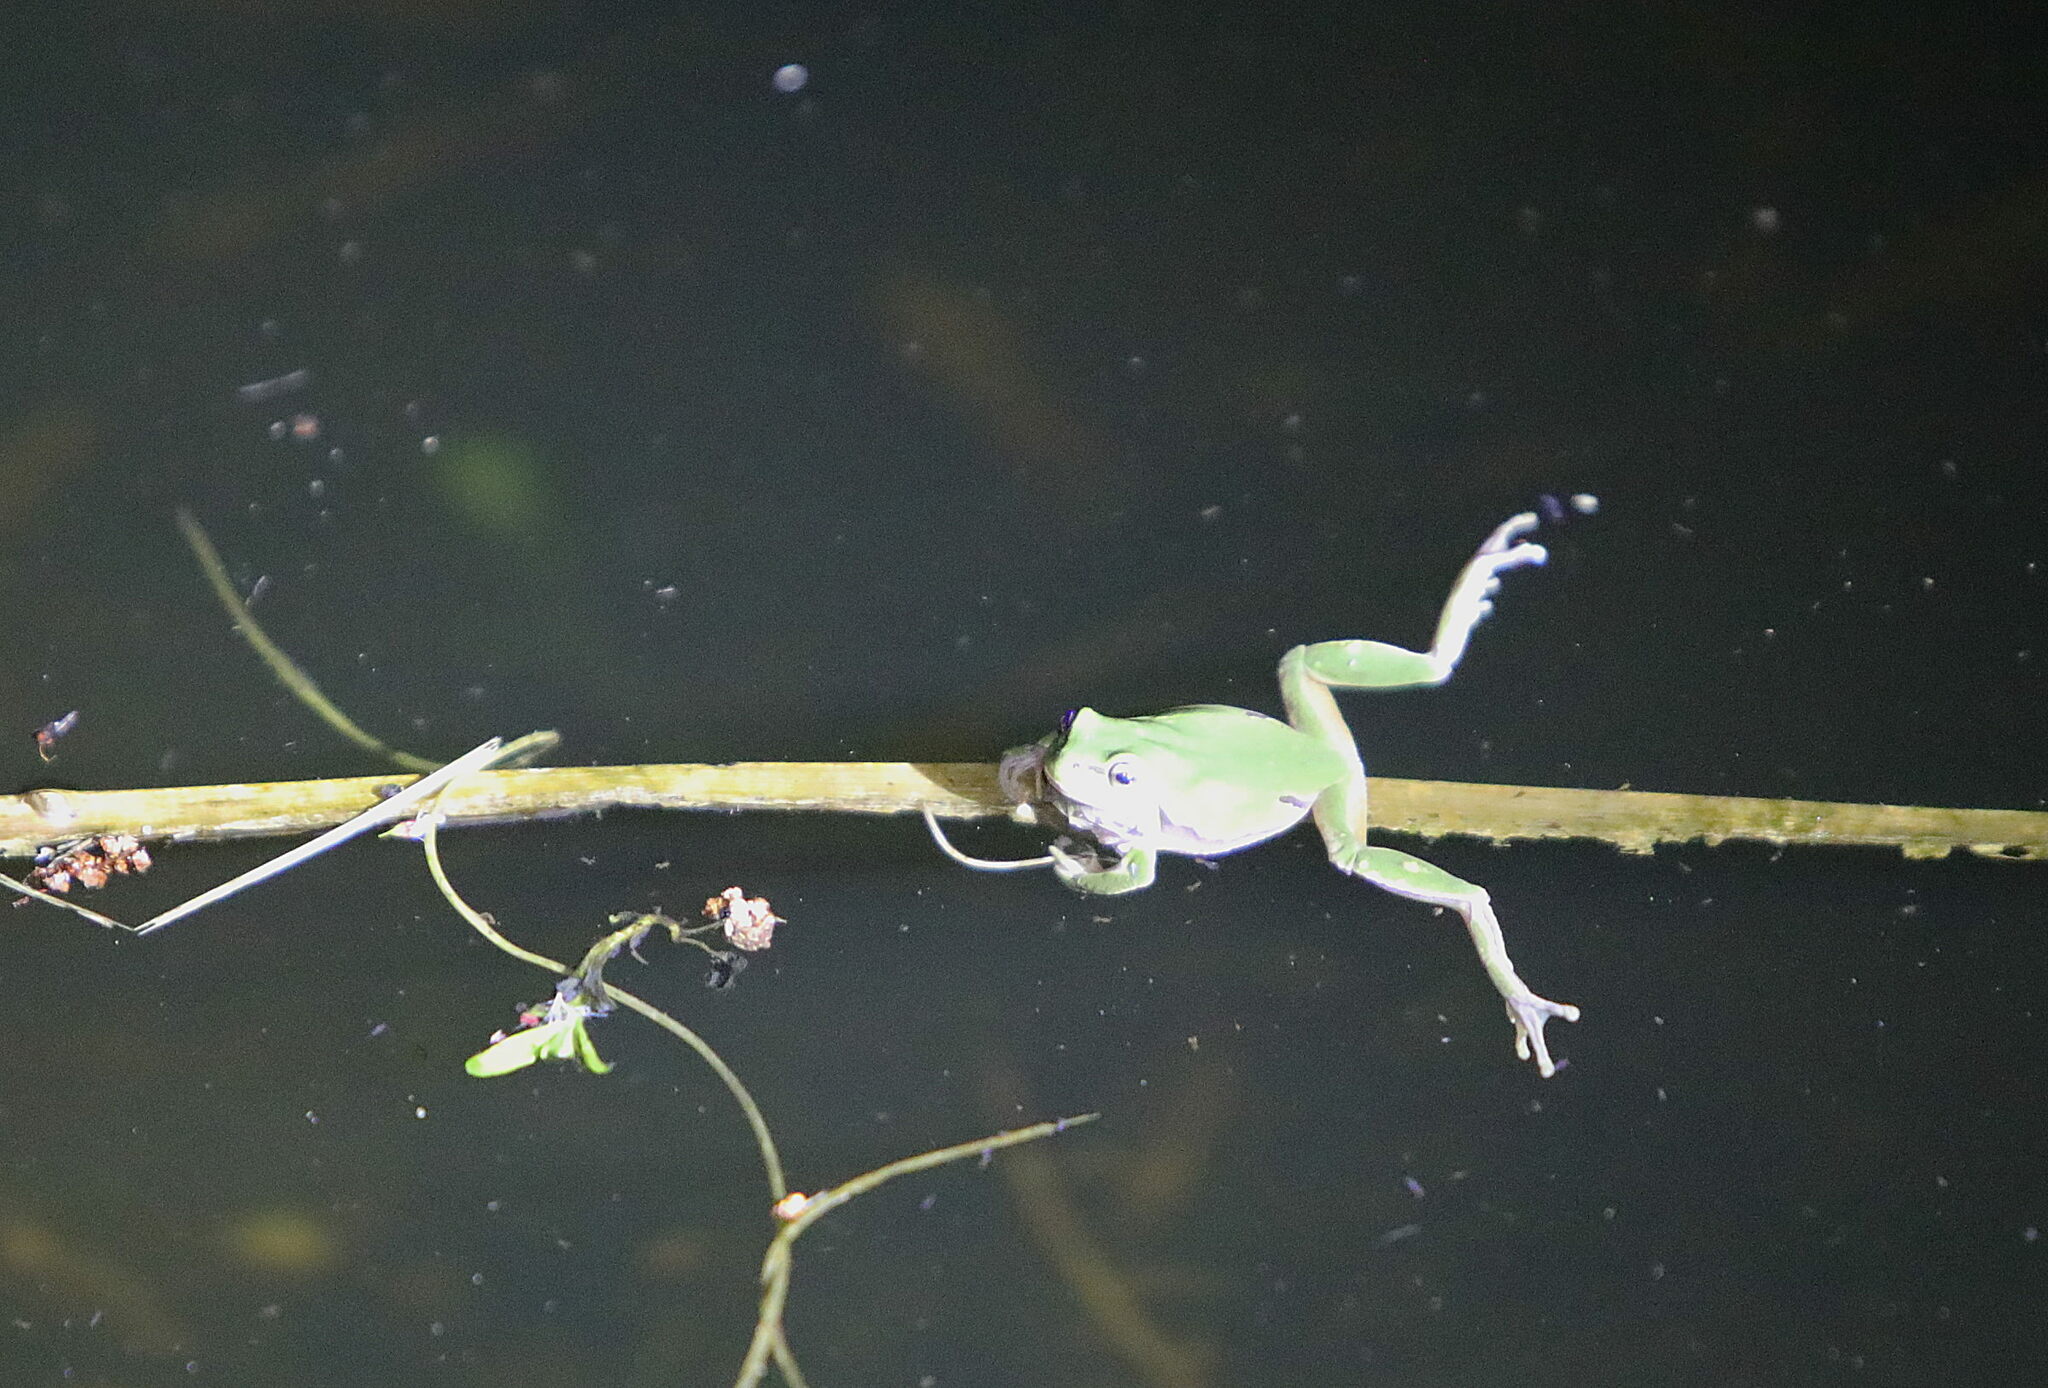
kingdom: Animalia
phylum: Chordata
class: Amphibia
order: Anura
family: Hylidae
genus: Hyla
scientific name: Hyla arborea
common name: Common tree frog
